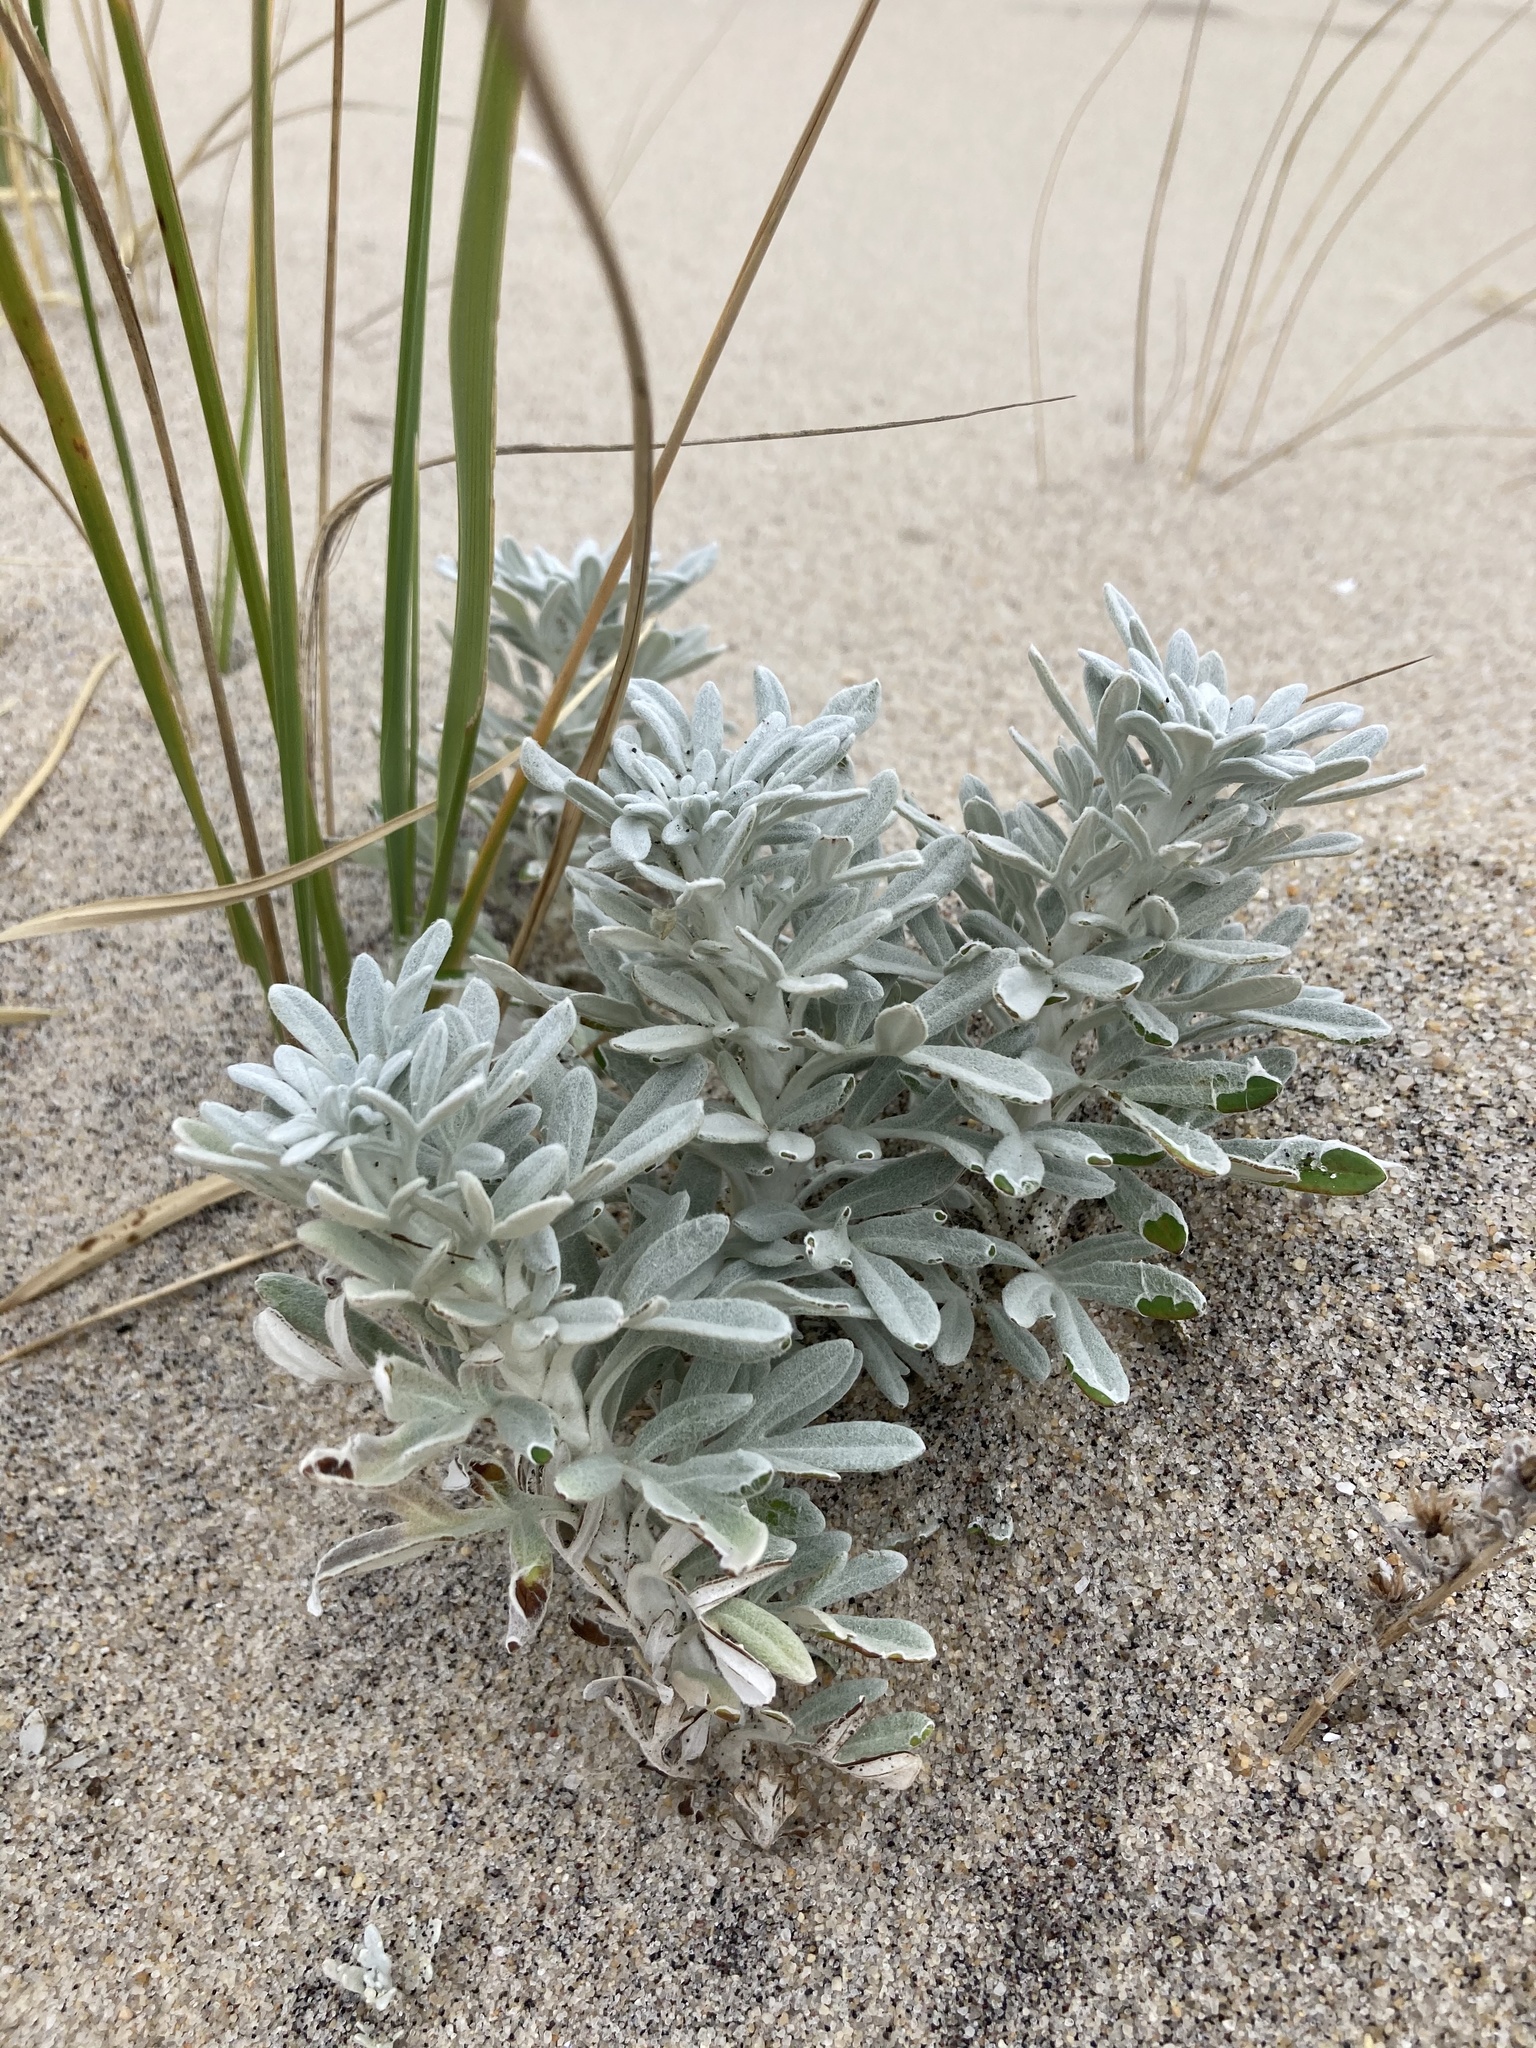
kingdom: Plantae
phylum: Tracheophyta
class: Magnoliopsida
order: Asterales
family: Asteraceae
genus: Artemisia
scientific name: Artemisia stelleriana
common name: Beach wormwood
